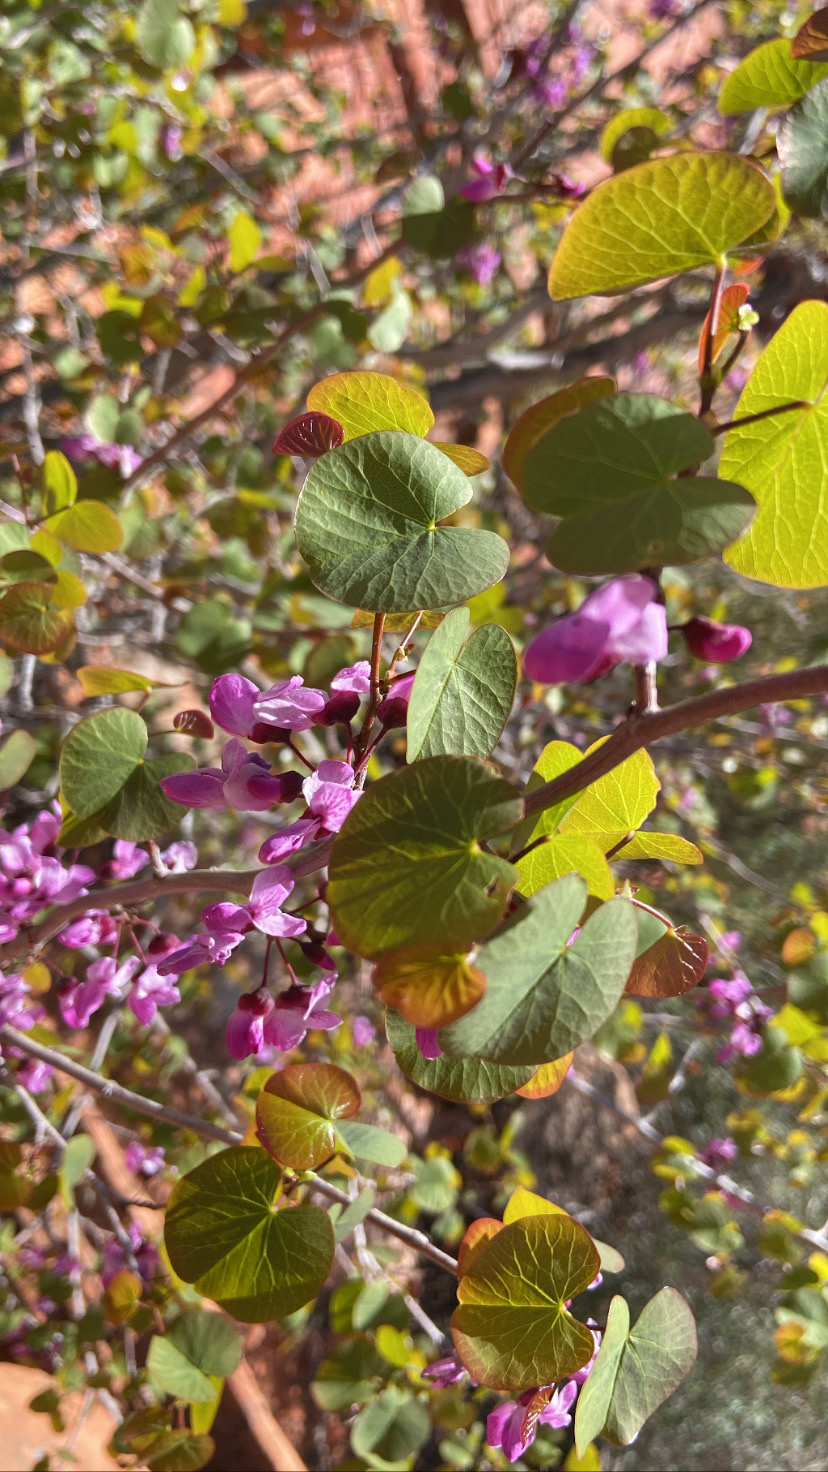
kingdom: Plantae
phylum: Tracheophyta
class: Magnoliopsida
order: Fabales
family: Fabaceae
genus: Cercis
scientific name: Cercis occidentalis
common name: California redbud
